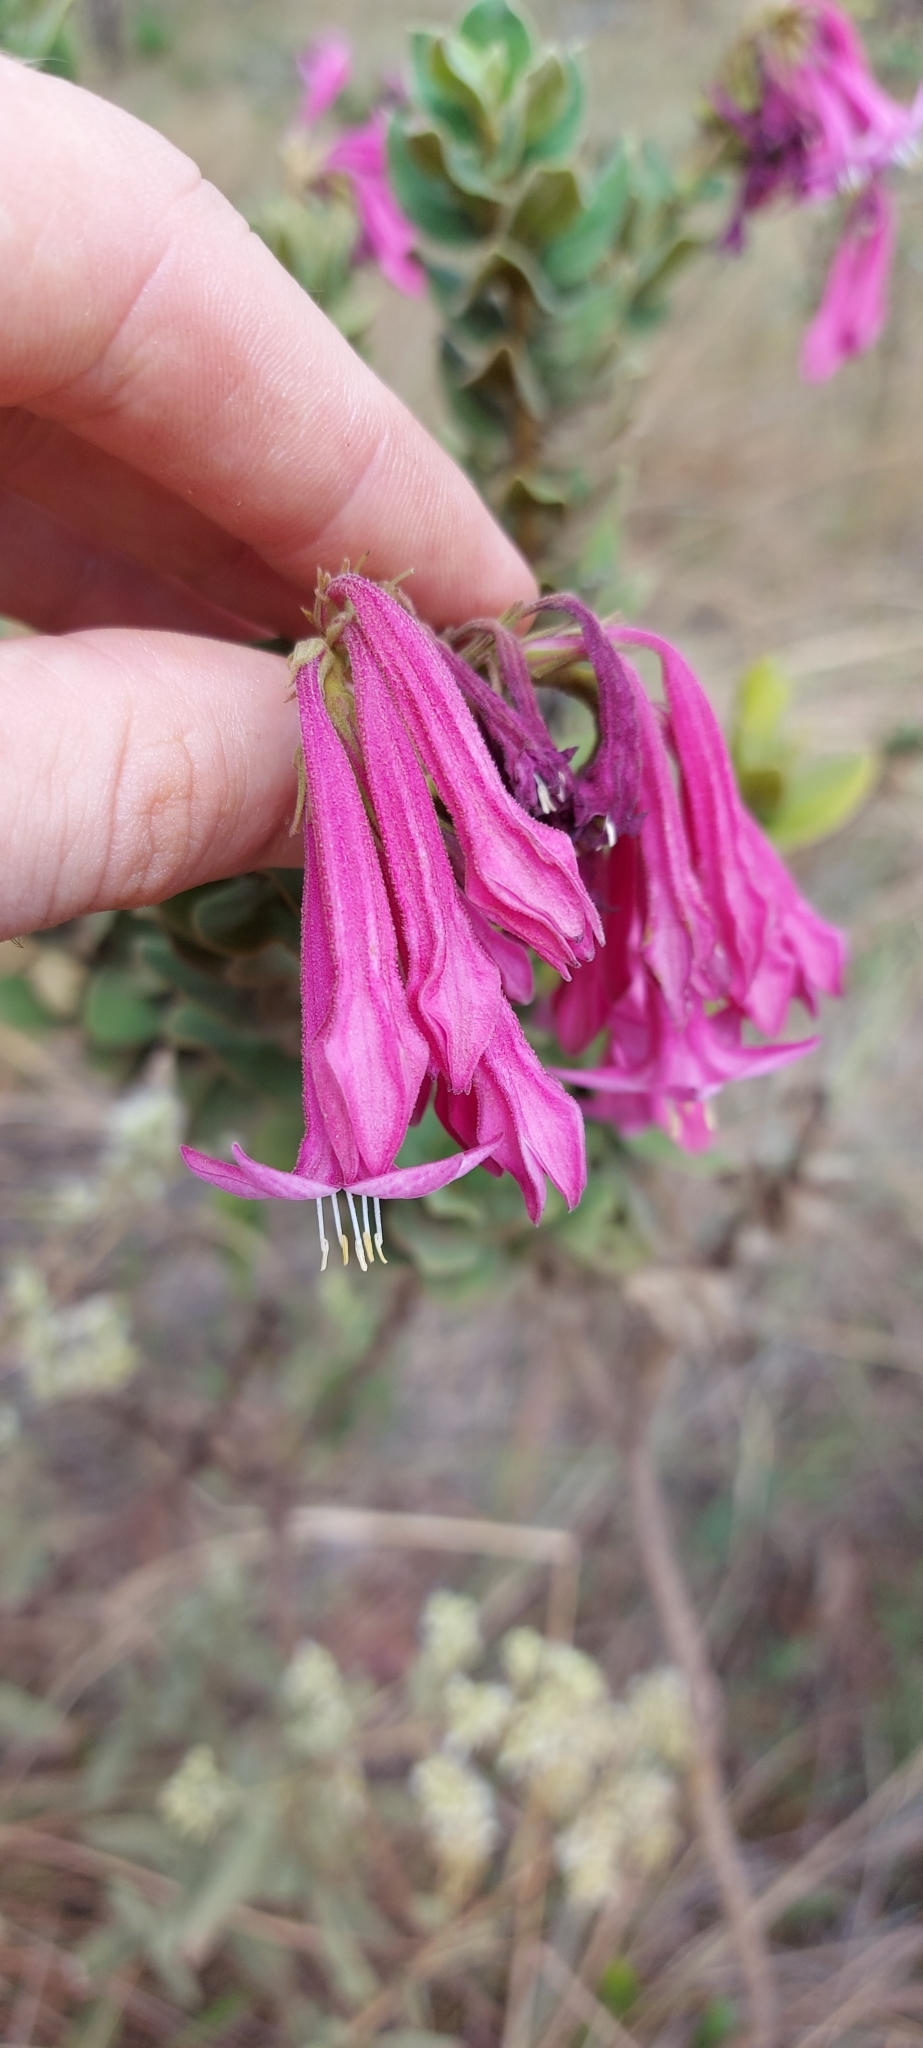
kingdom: Plantae
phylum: Tracheophyta
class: Magnoliopsida
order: Gentianales
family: Loganiaceae
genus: Spigelia
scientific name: Spigelia sellowiana
